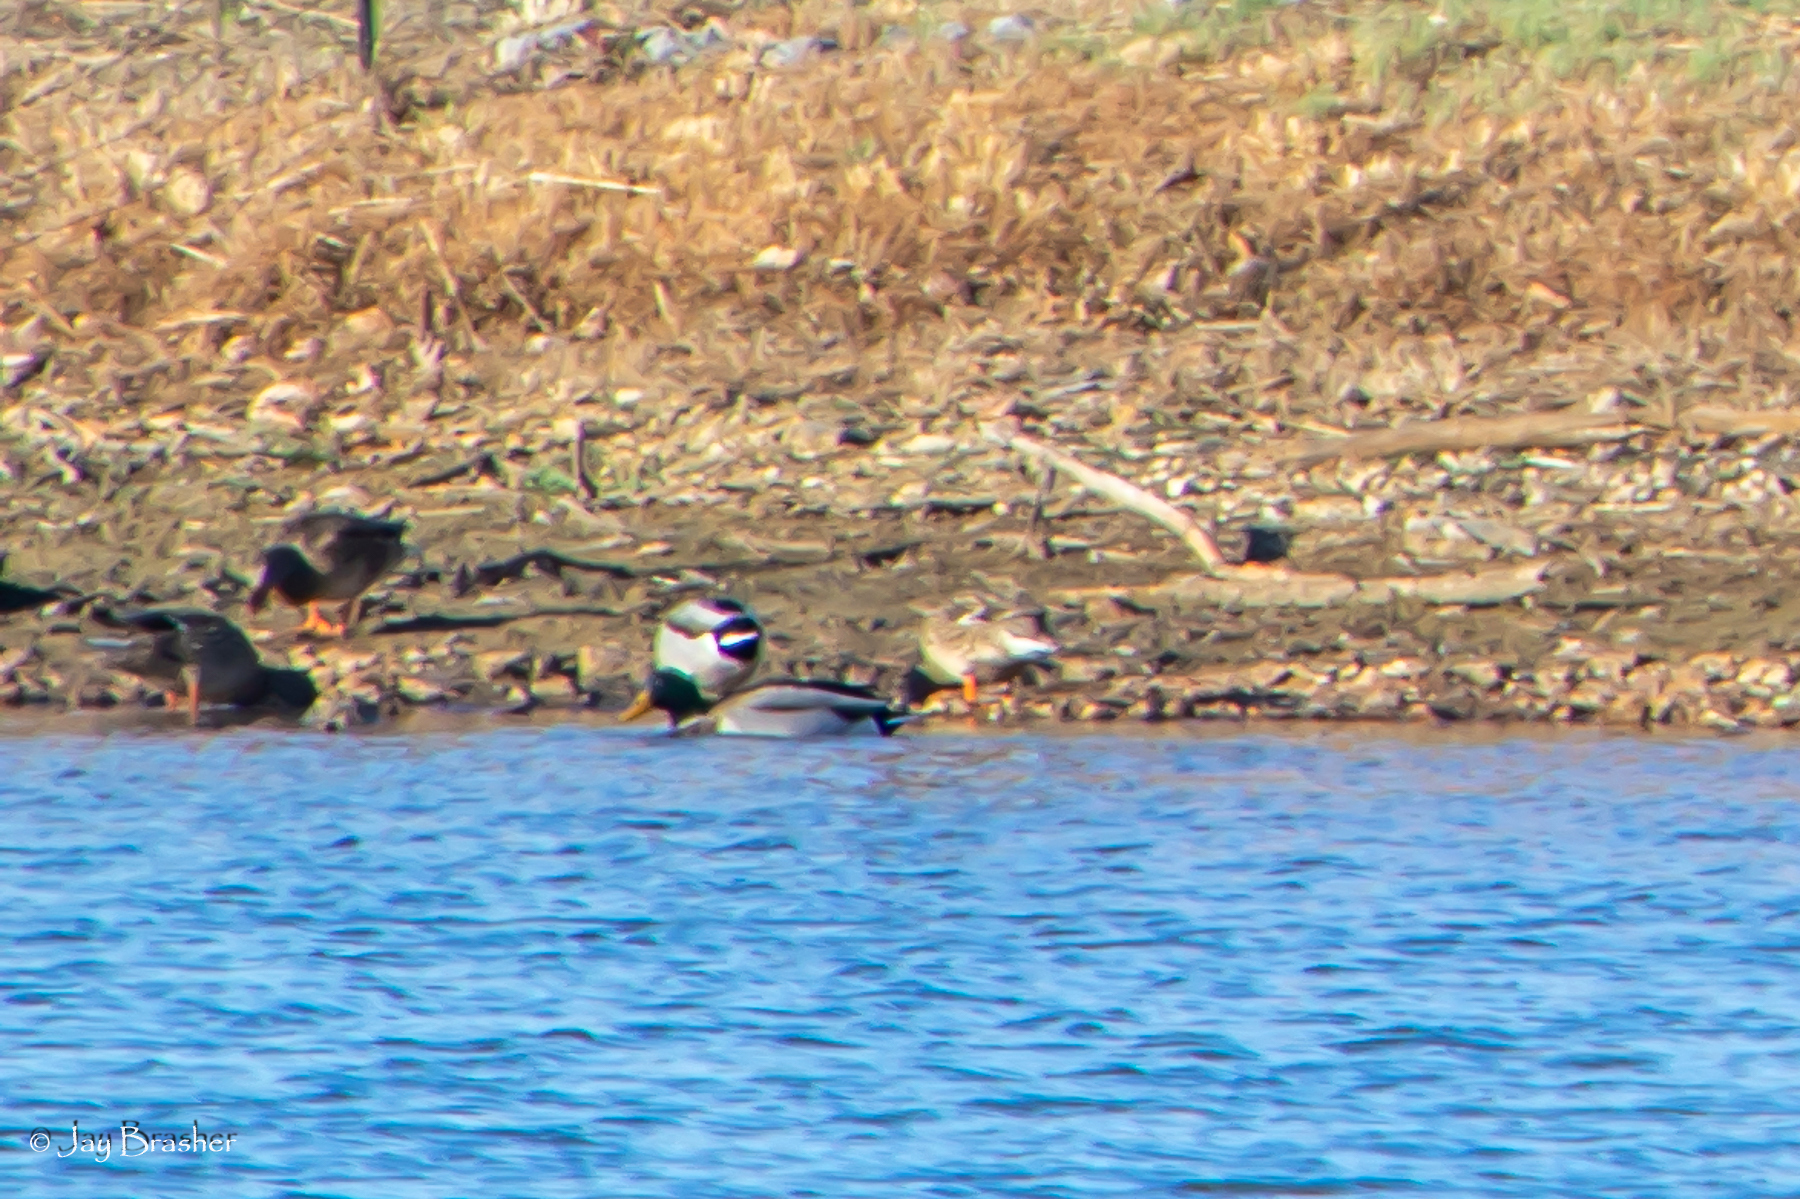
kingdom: Animalia
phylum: Chordata
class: Aves
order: Anseriformes
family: Anatidae
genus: Anas
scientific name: Anas platyrhynchos
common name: Mallard
